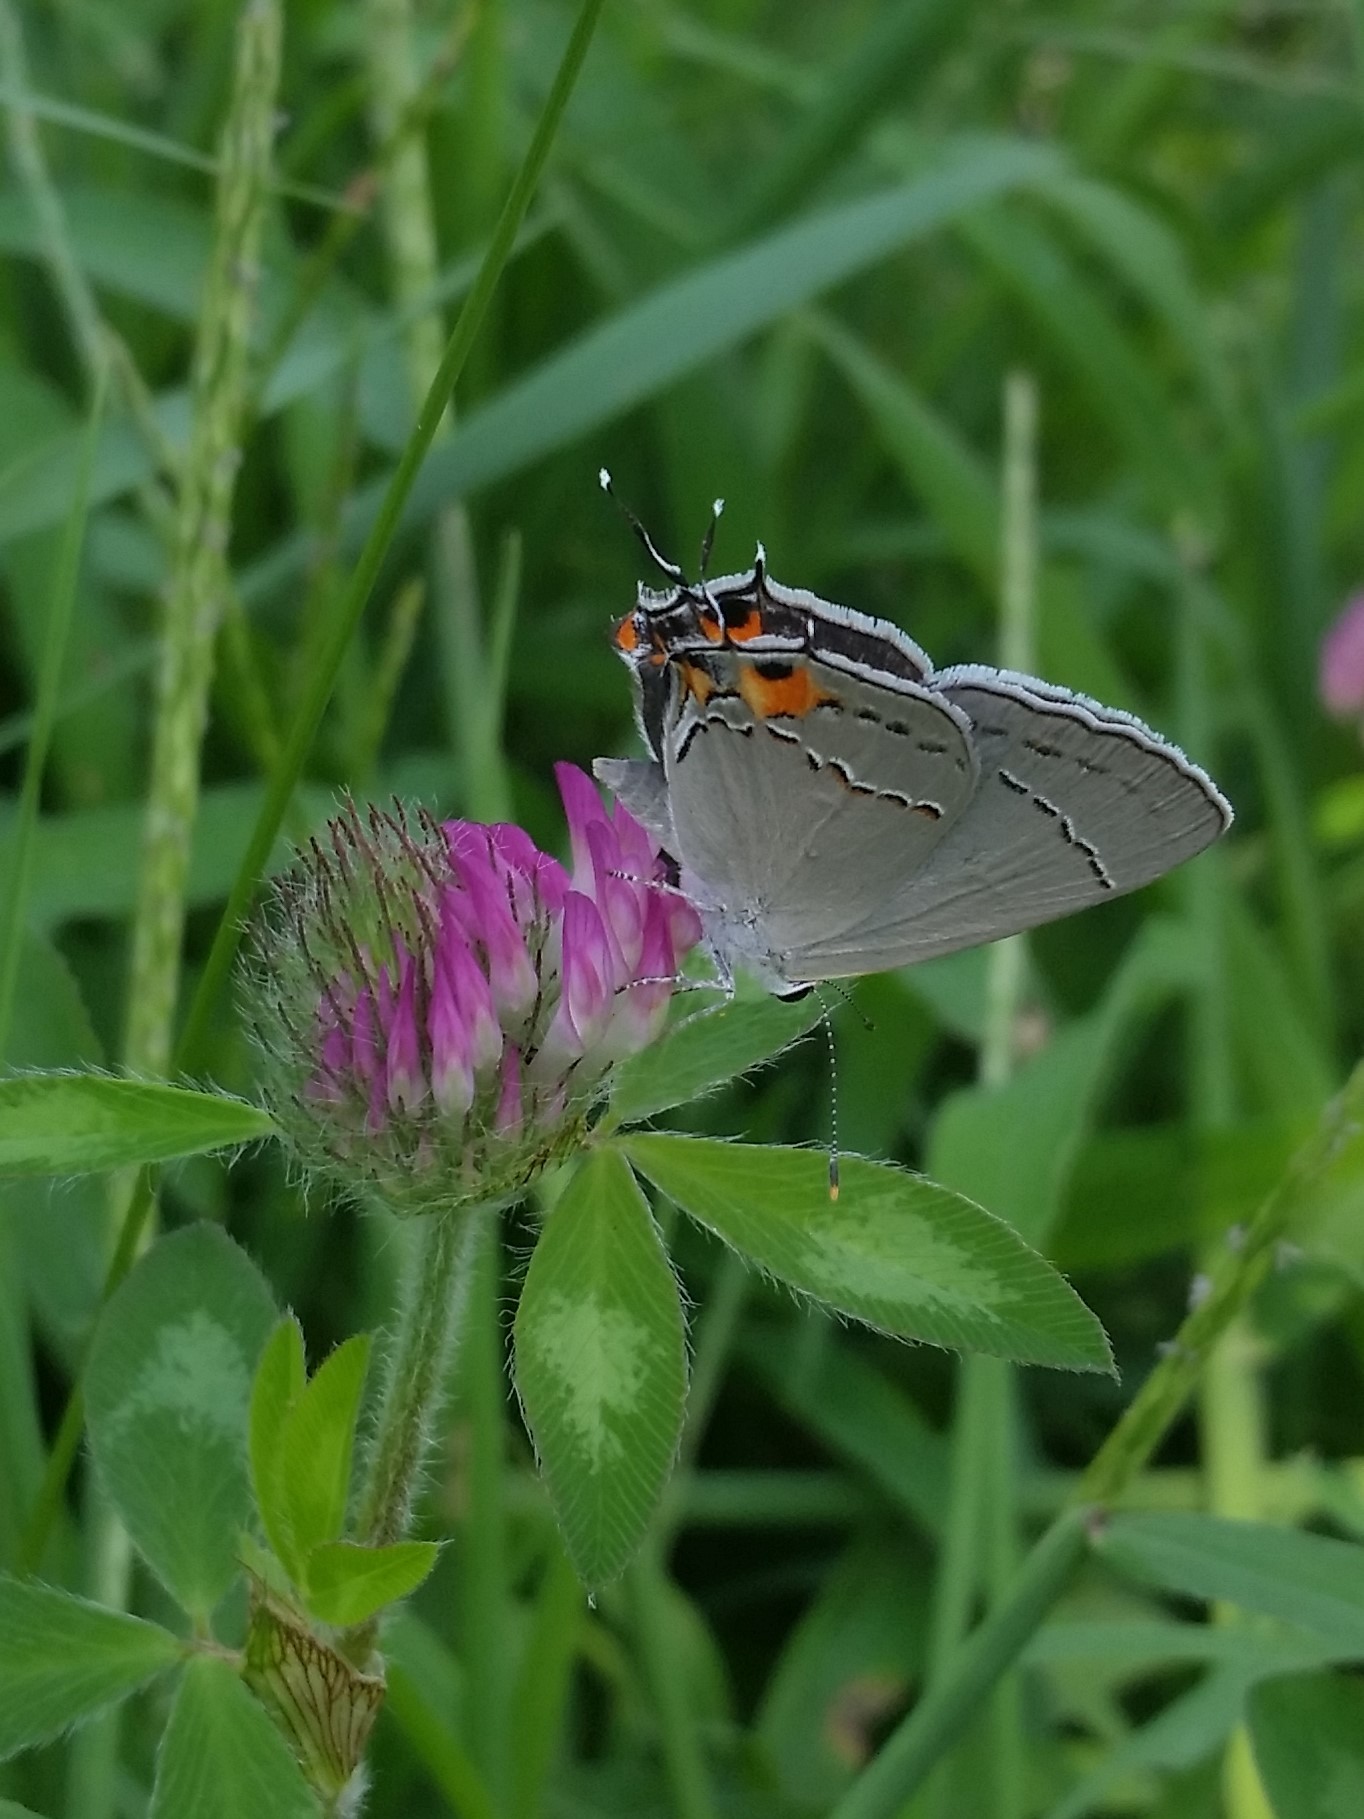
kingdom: Animalia
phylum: Arthropoda
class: Insecta
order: Lepidoptera
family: Lycaenidae
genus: Strymon
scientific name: Strymon melinus
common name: Gray hairstreak
